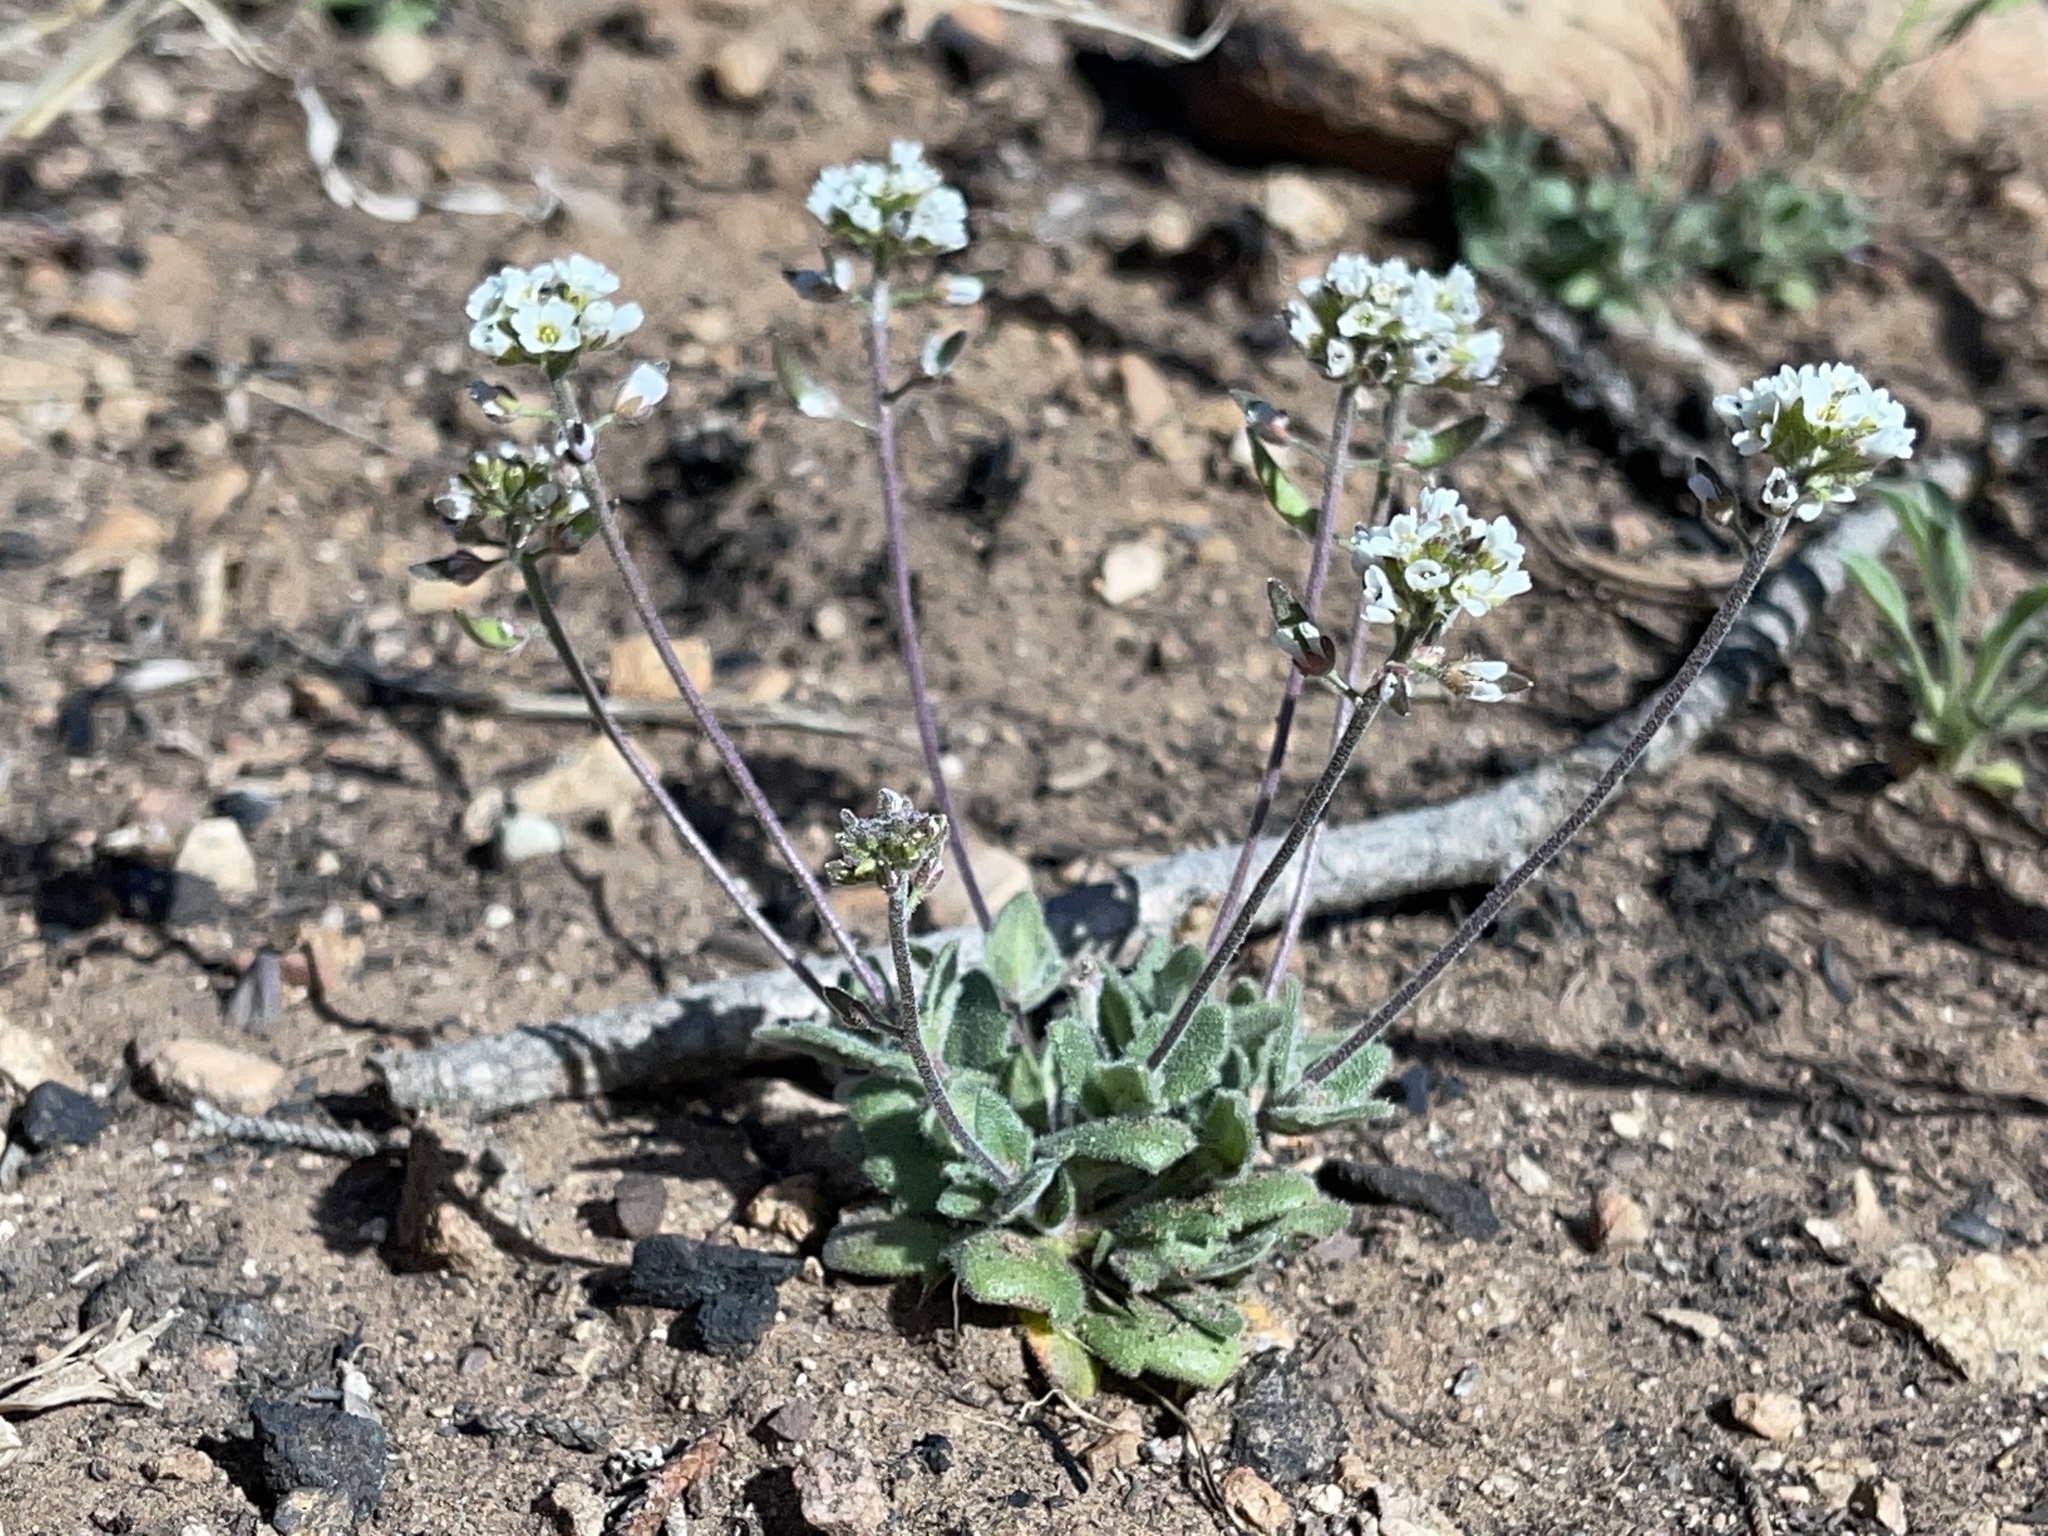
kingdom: Plantae
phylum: Tracheophyta
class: Magnoliopsida
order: Brassicales
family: Brassicaceae
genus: Tomostima
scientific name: Tomostima cuneifolia
